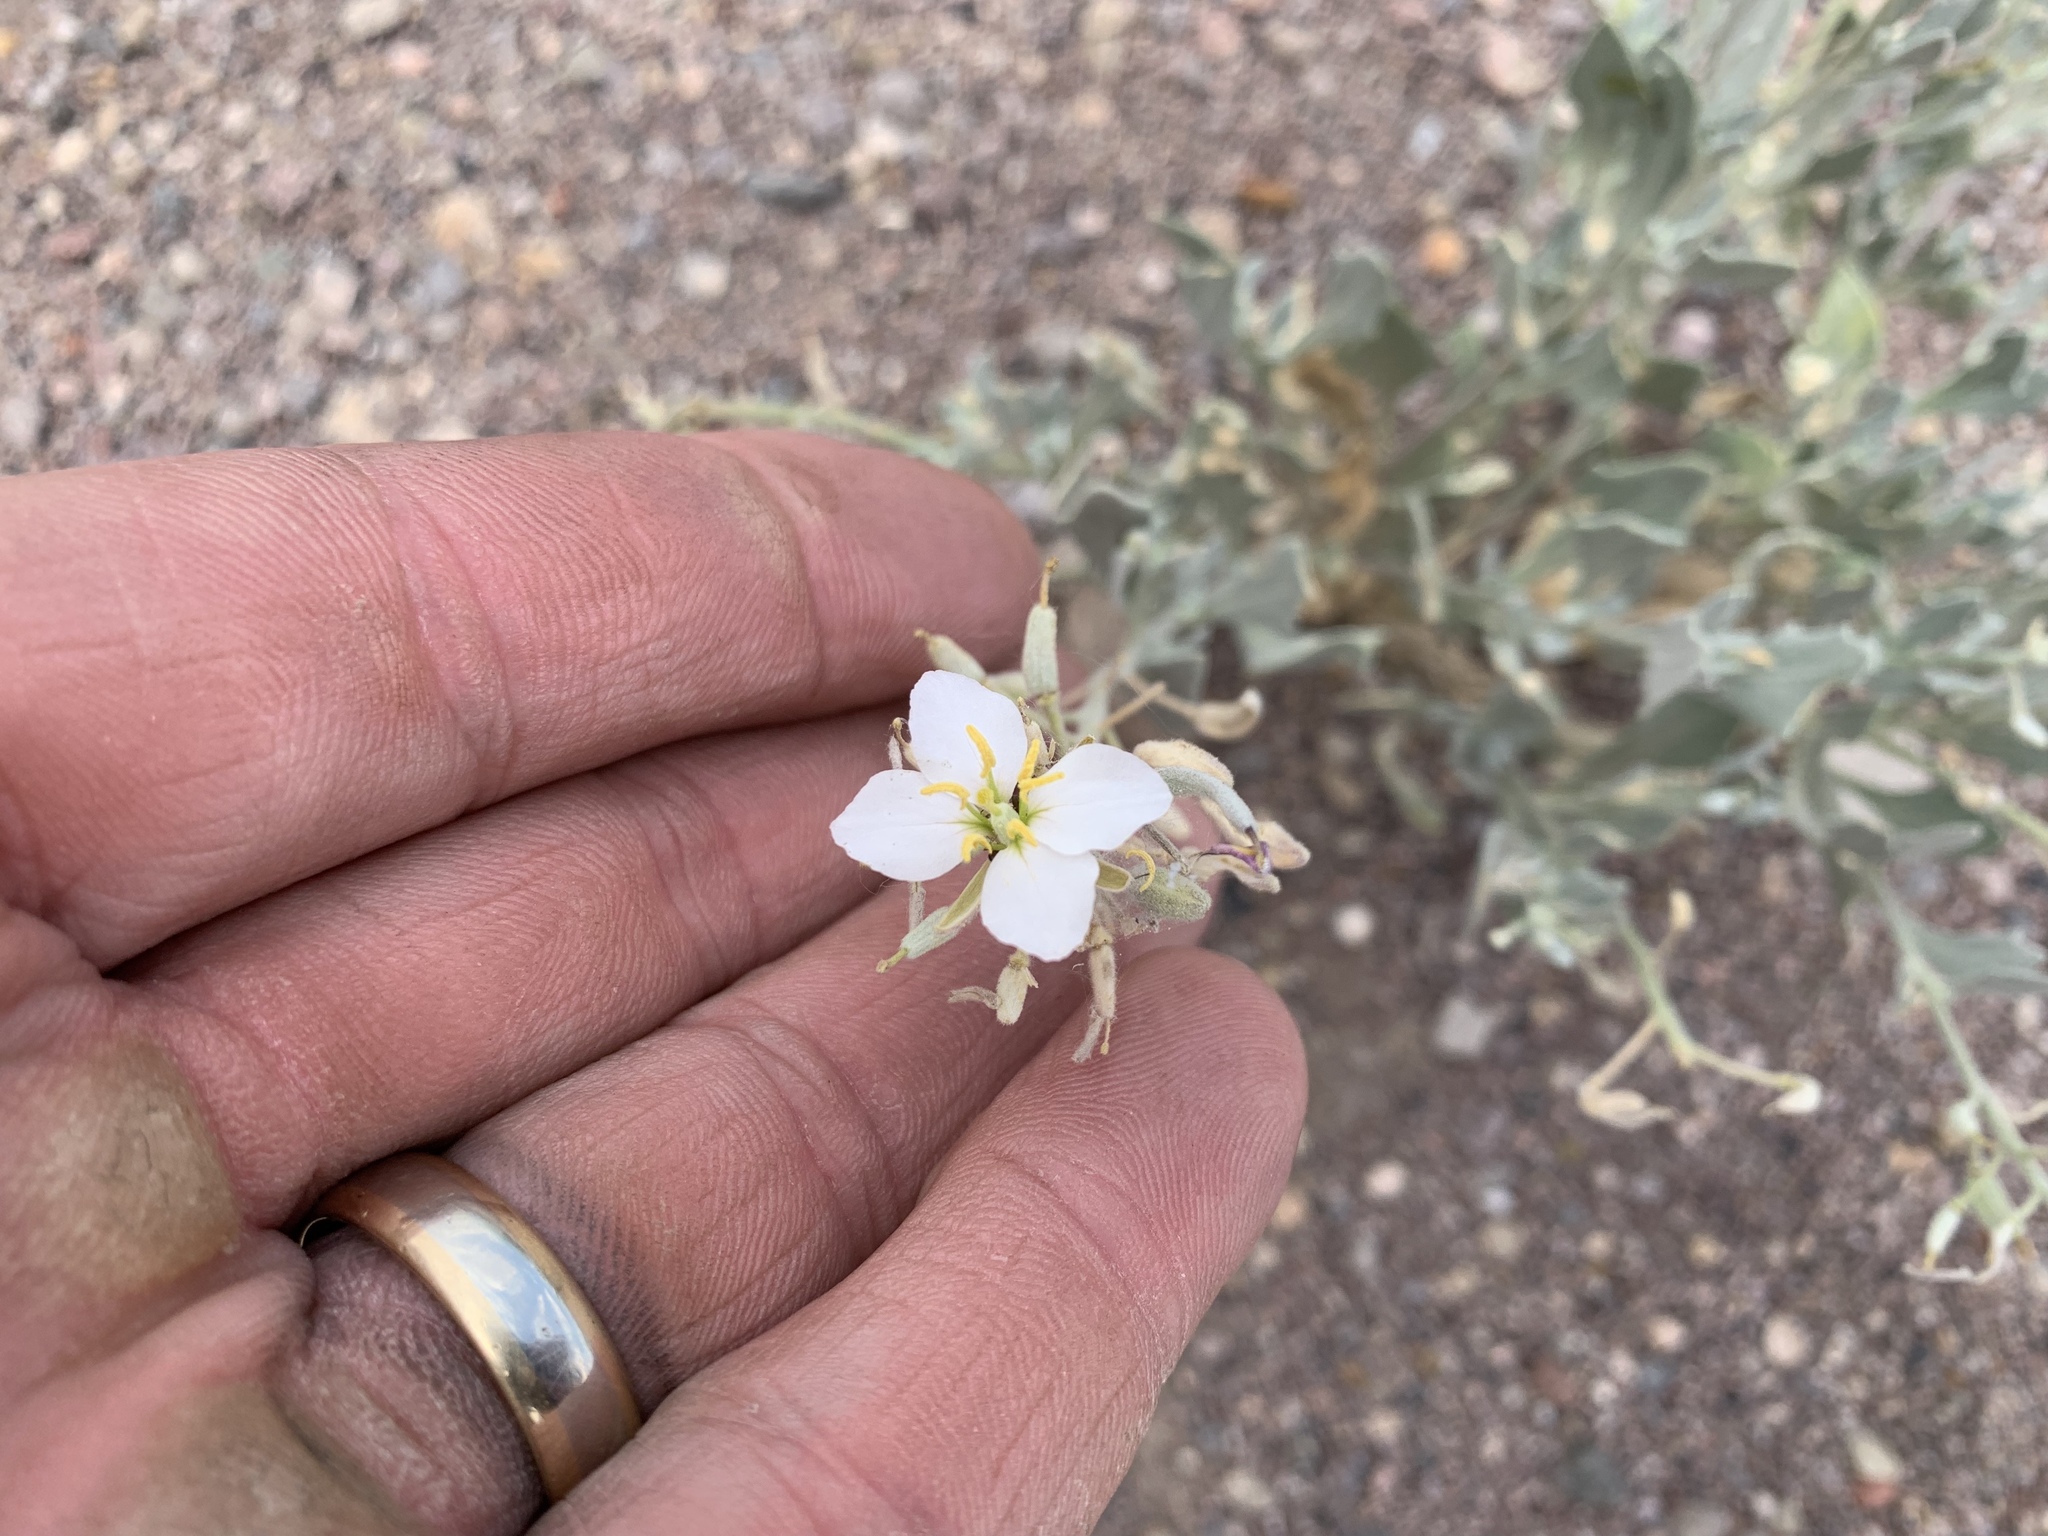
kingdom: Plantae
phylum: Tracheophyta
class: Magnoliopsida
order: Brassicales
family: Brassicaceae
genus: Nerisyrenia
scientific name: Nerisyrenia camporum
